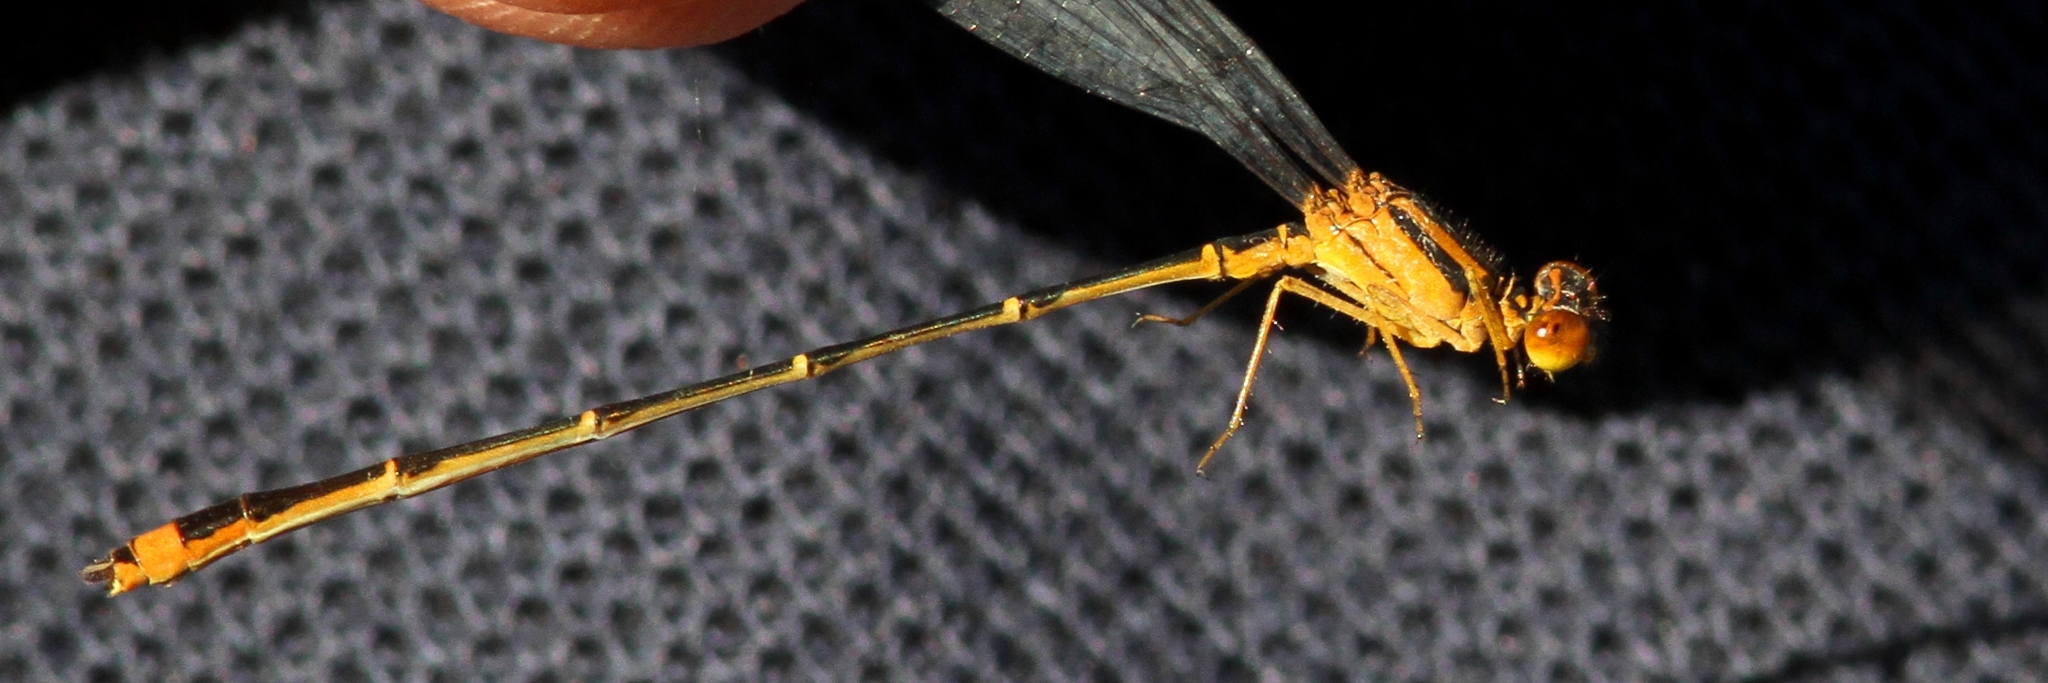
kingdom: Animalia
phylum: Arthropoda
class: Insecta
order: Odonata
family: Coenagrionidae
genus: Enallagma
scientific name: Enallagma signatum
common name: Orange bluet
